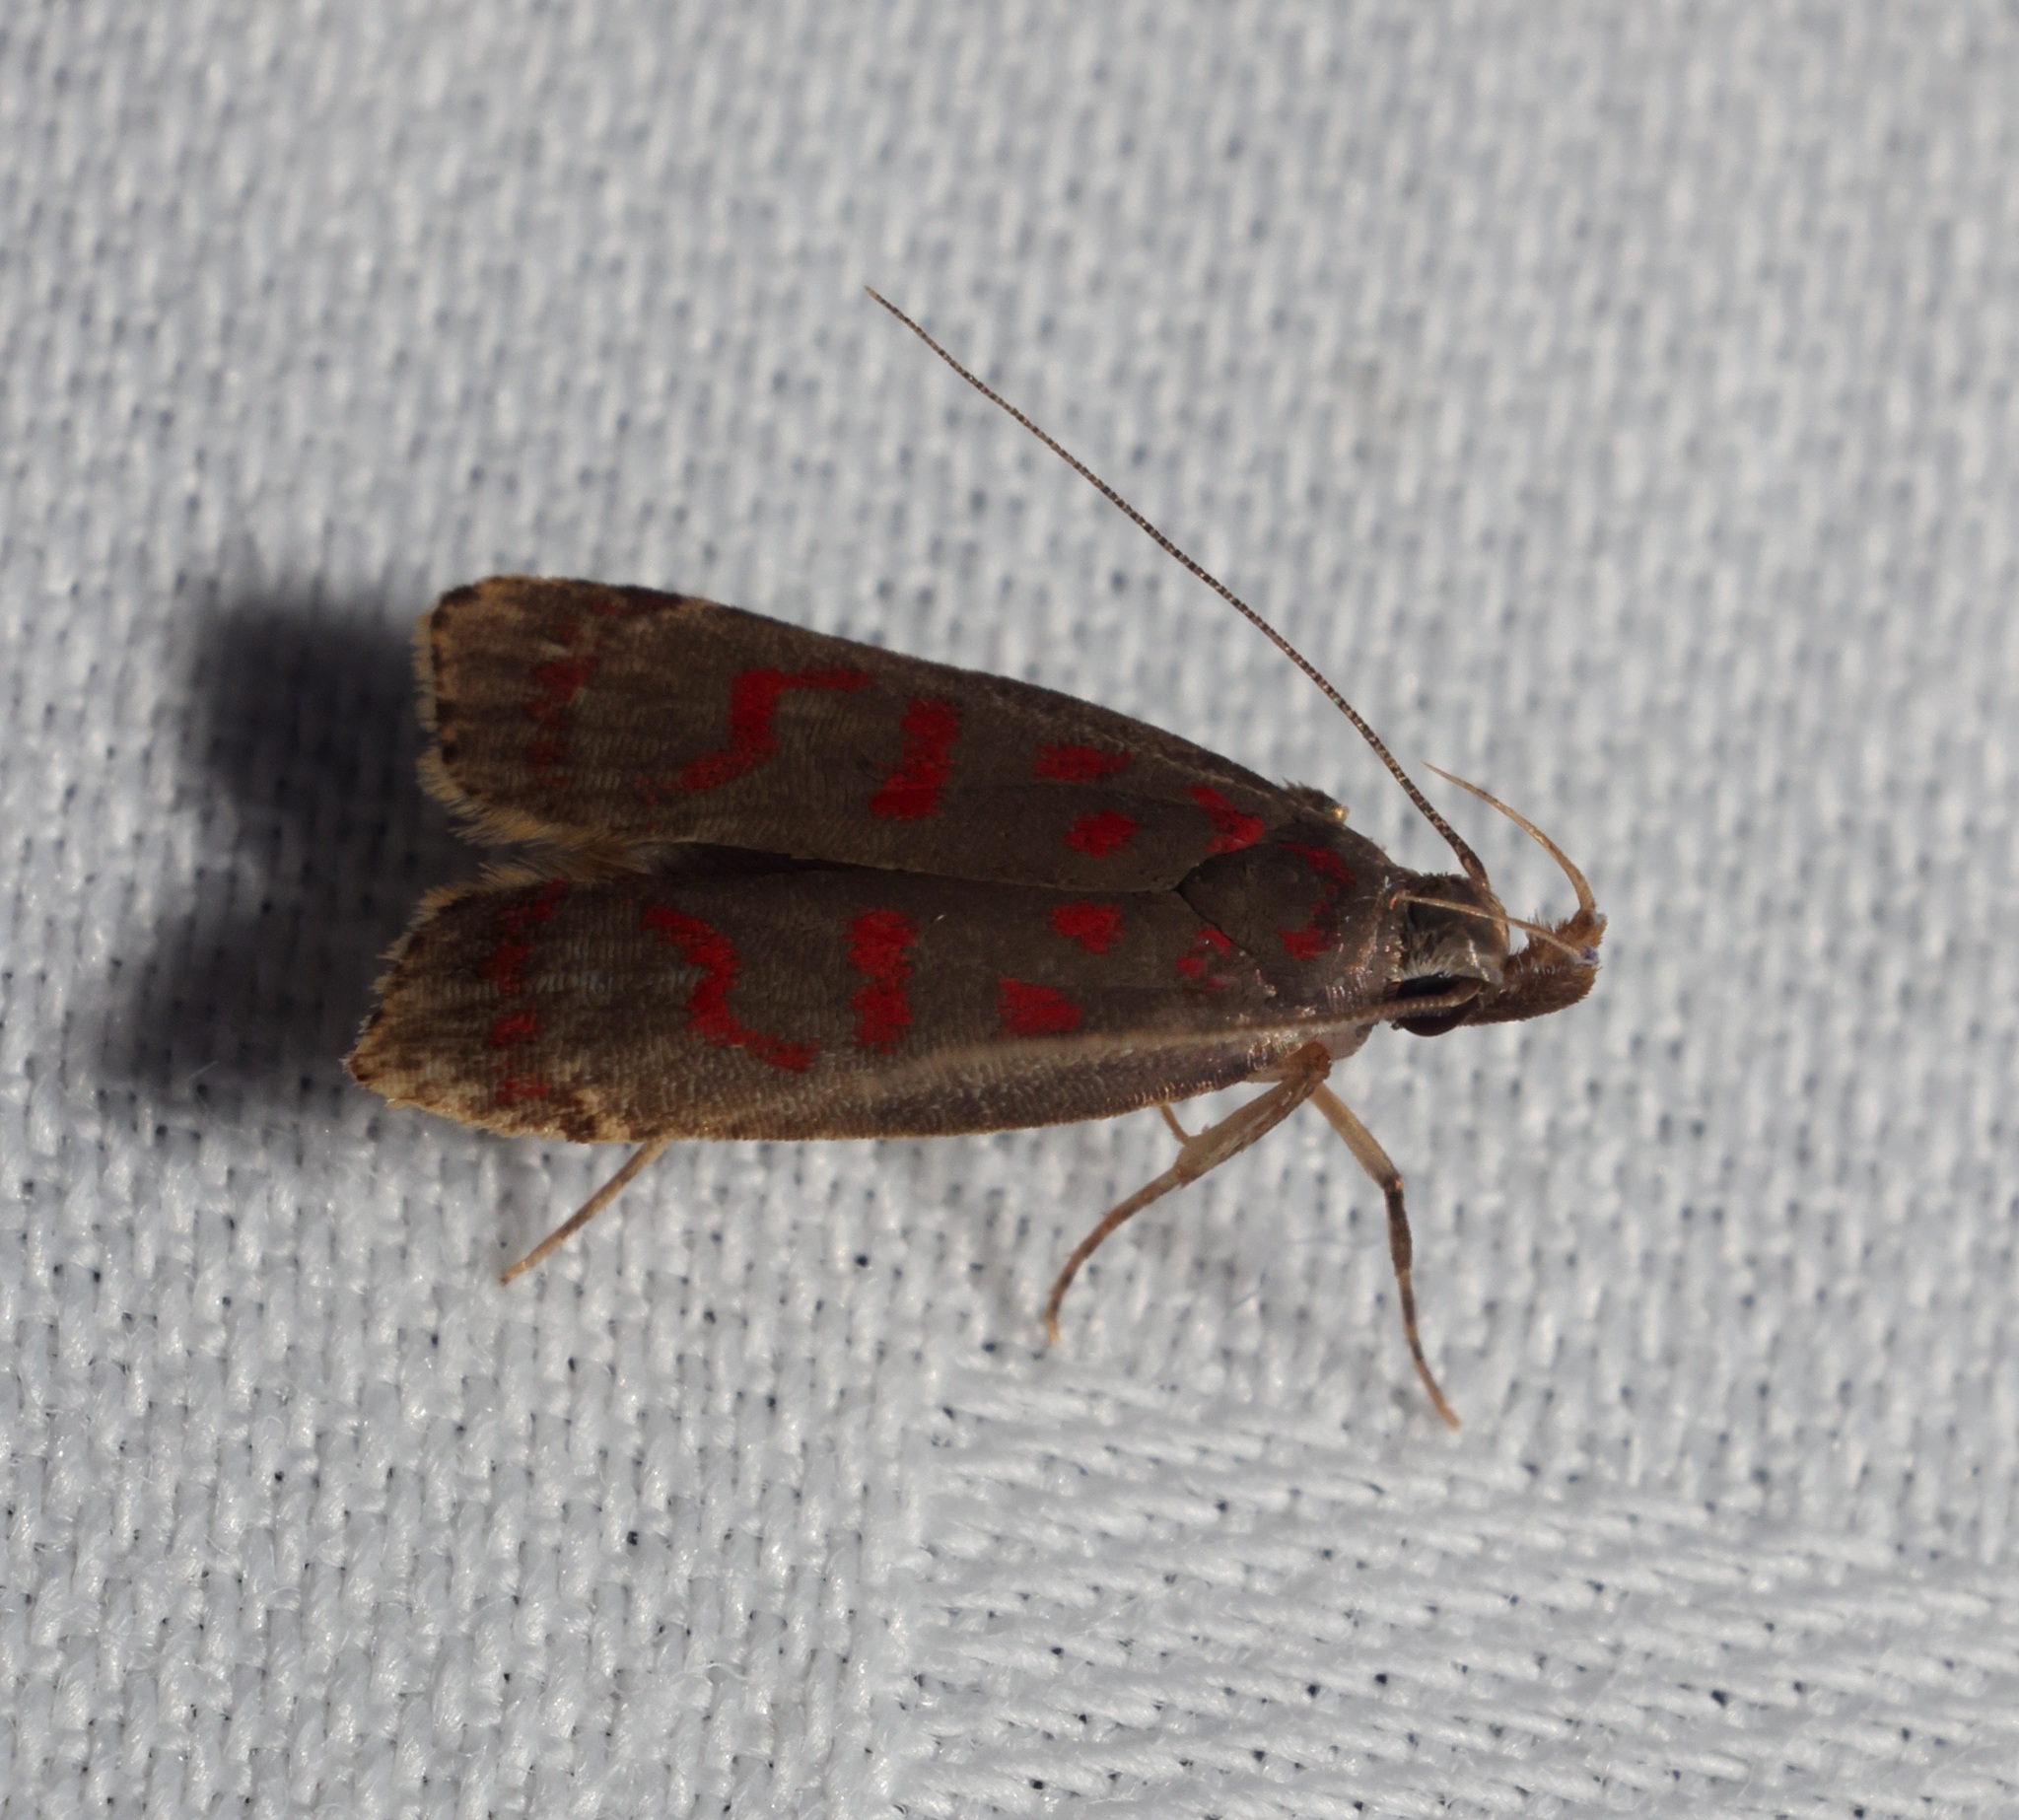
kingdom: Animalia
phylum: Arthropoda
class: Insecta
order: Lepidoptera
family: Gelechiidae
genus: Dichomeris
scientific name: Dichomeris sandycitis
